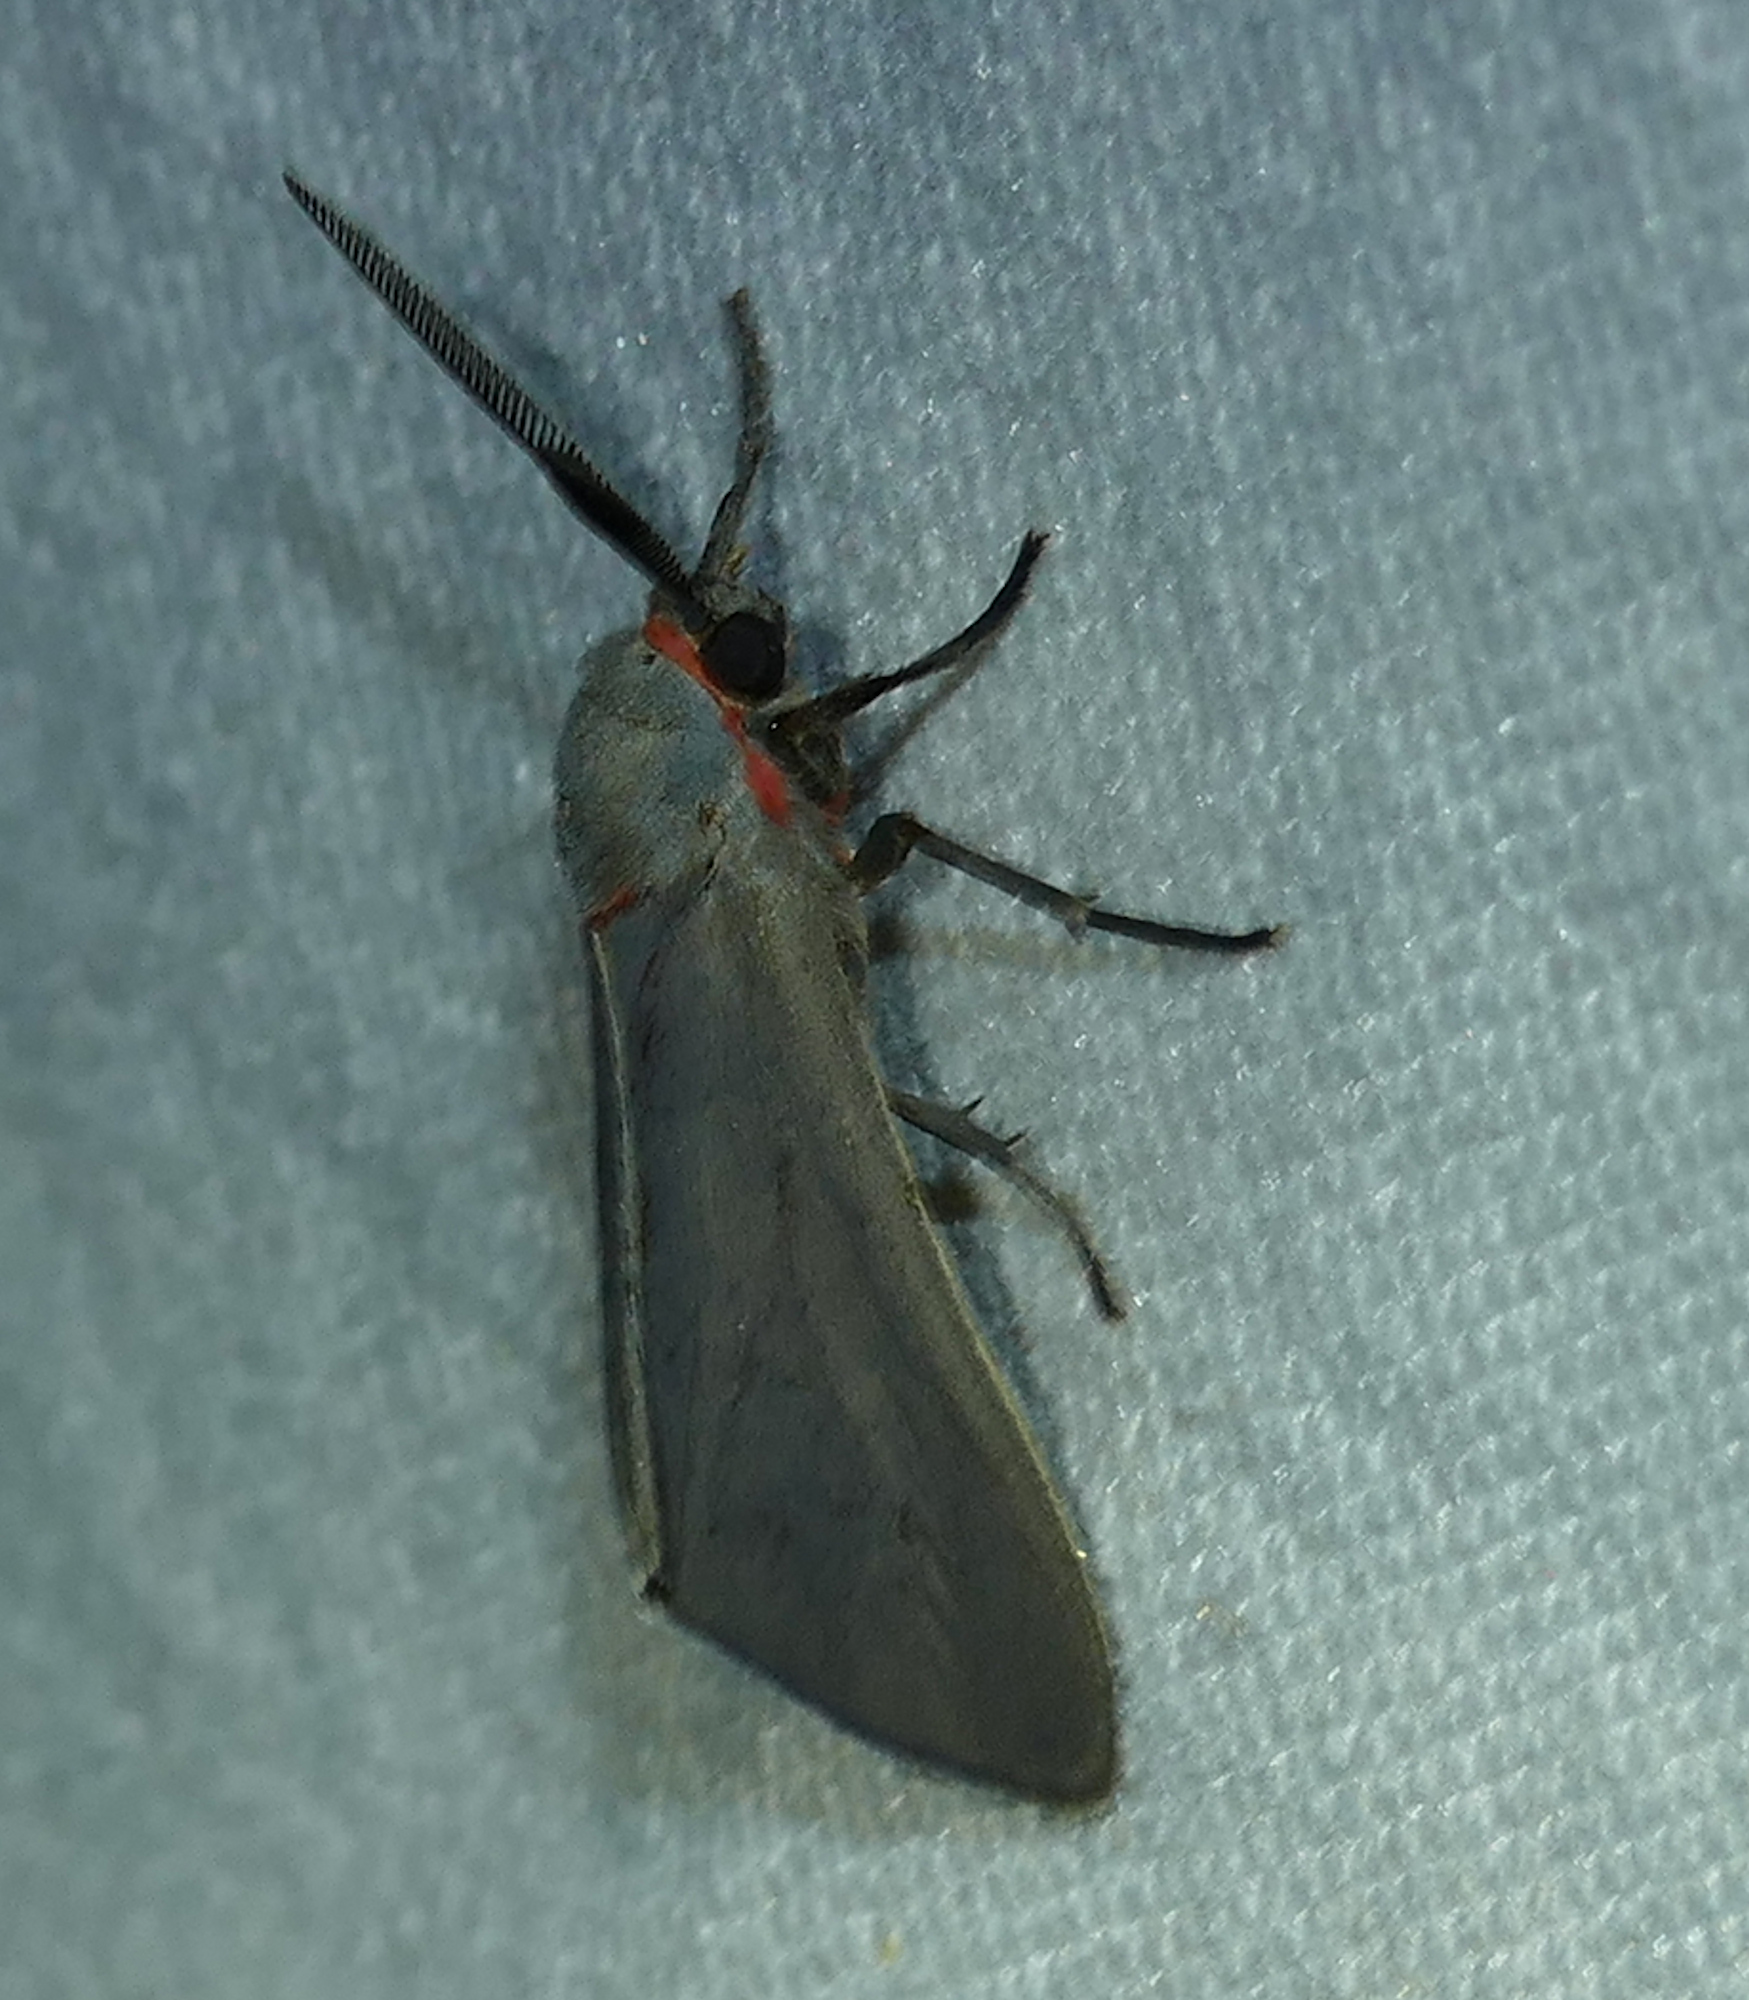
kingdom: Animalia
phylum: Arthropoda
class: Insecta
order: Lepidoptera
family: Erebidae
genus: Pygarctia
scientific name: Pygarctia murina
